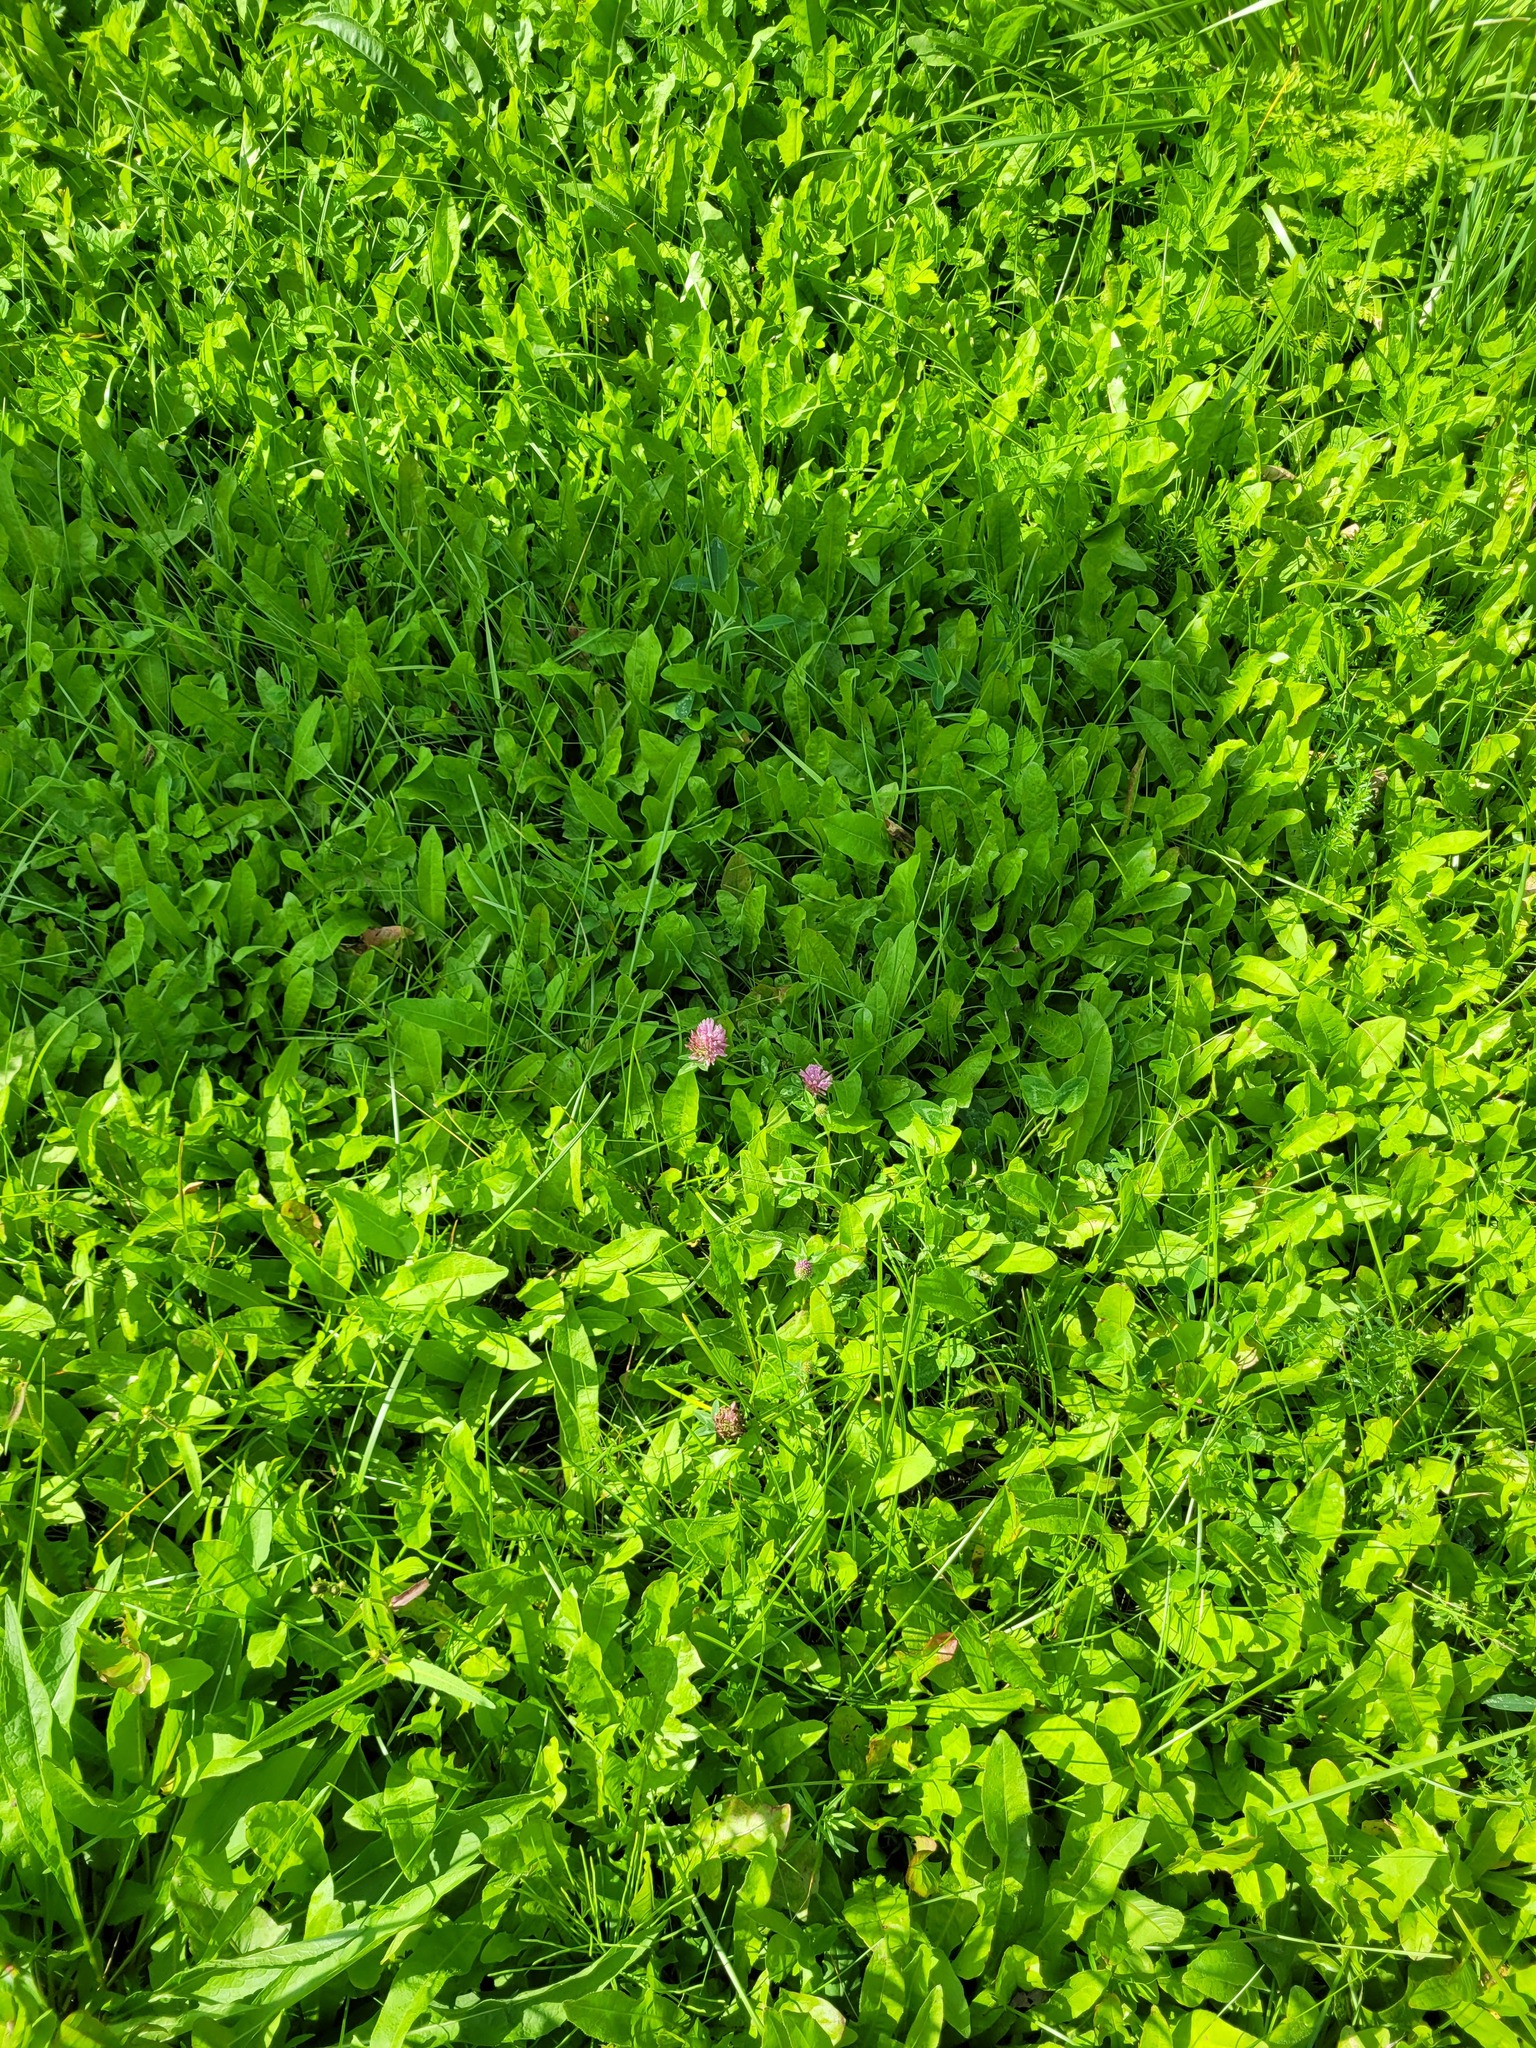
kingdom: Plantae
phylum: Tracheophyta
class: Magnoliopsida
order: Fabales
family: Fabaceae
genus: Trifolium
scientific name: Trifolium pratense
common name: Red clover
